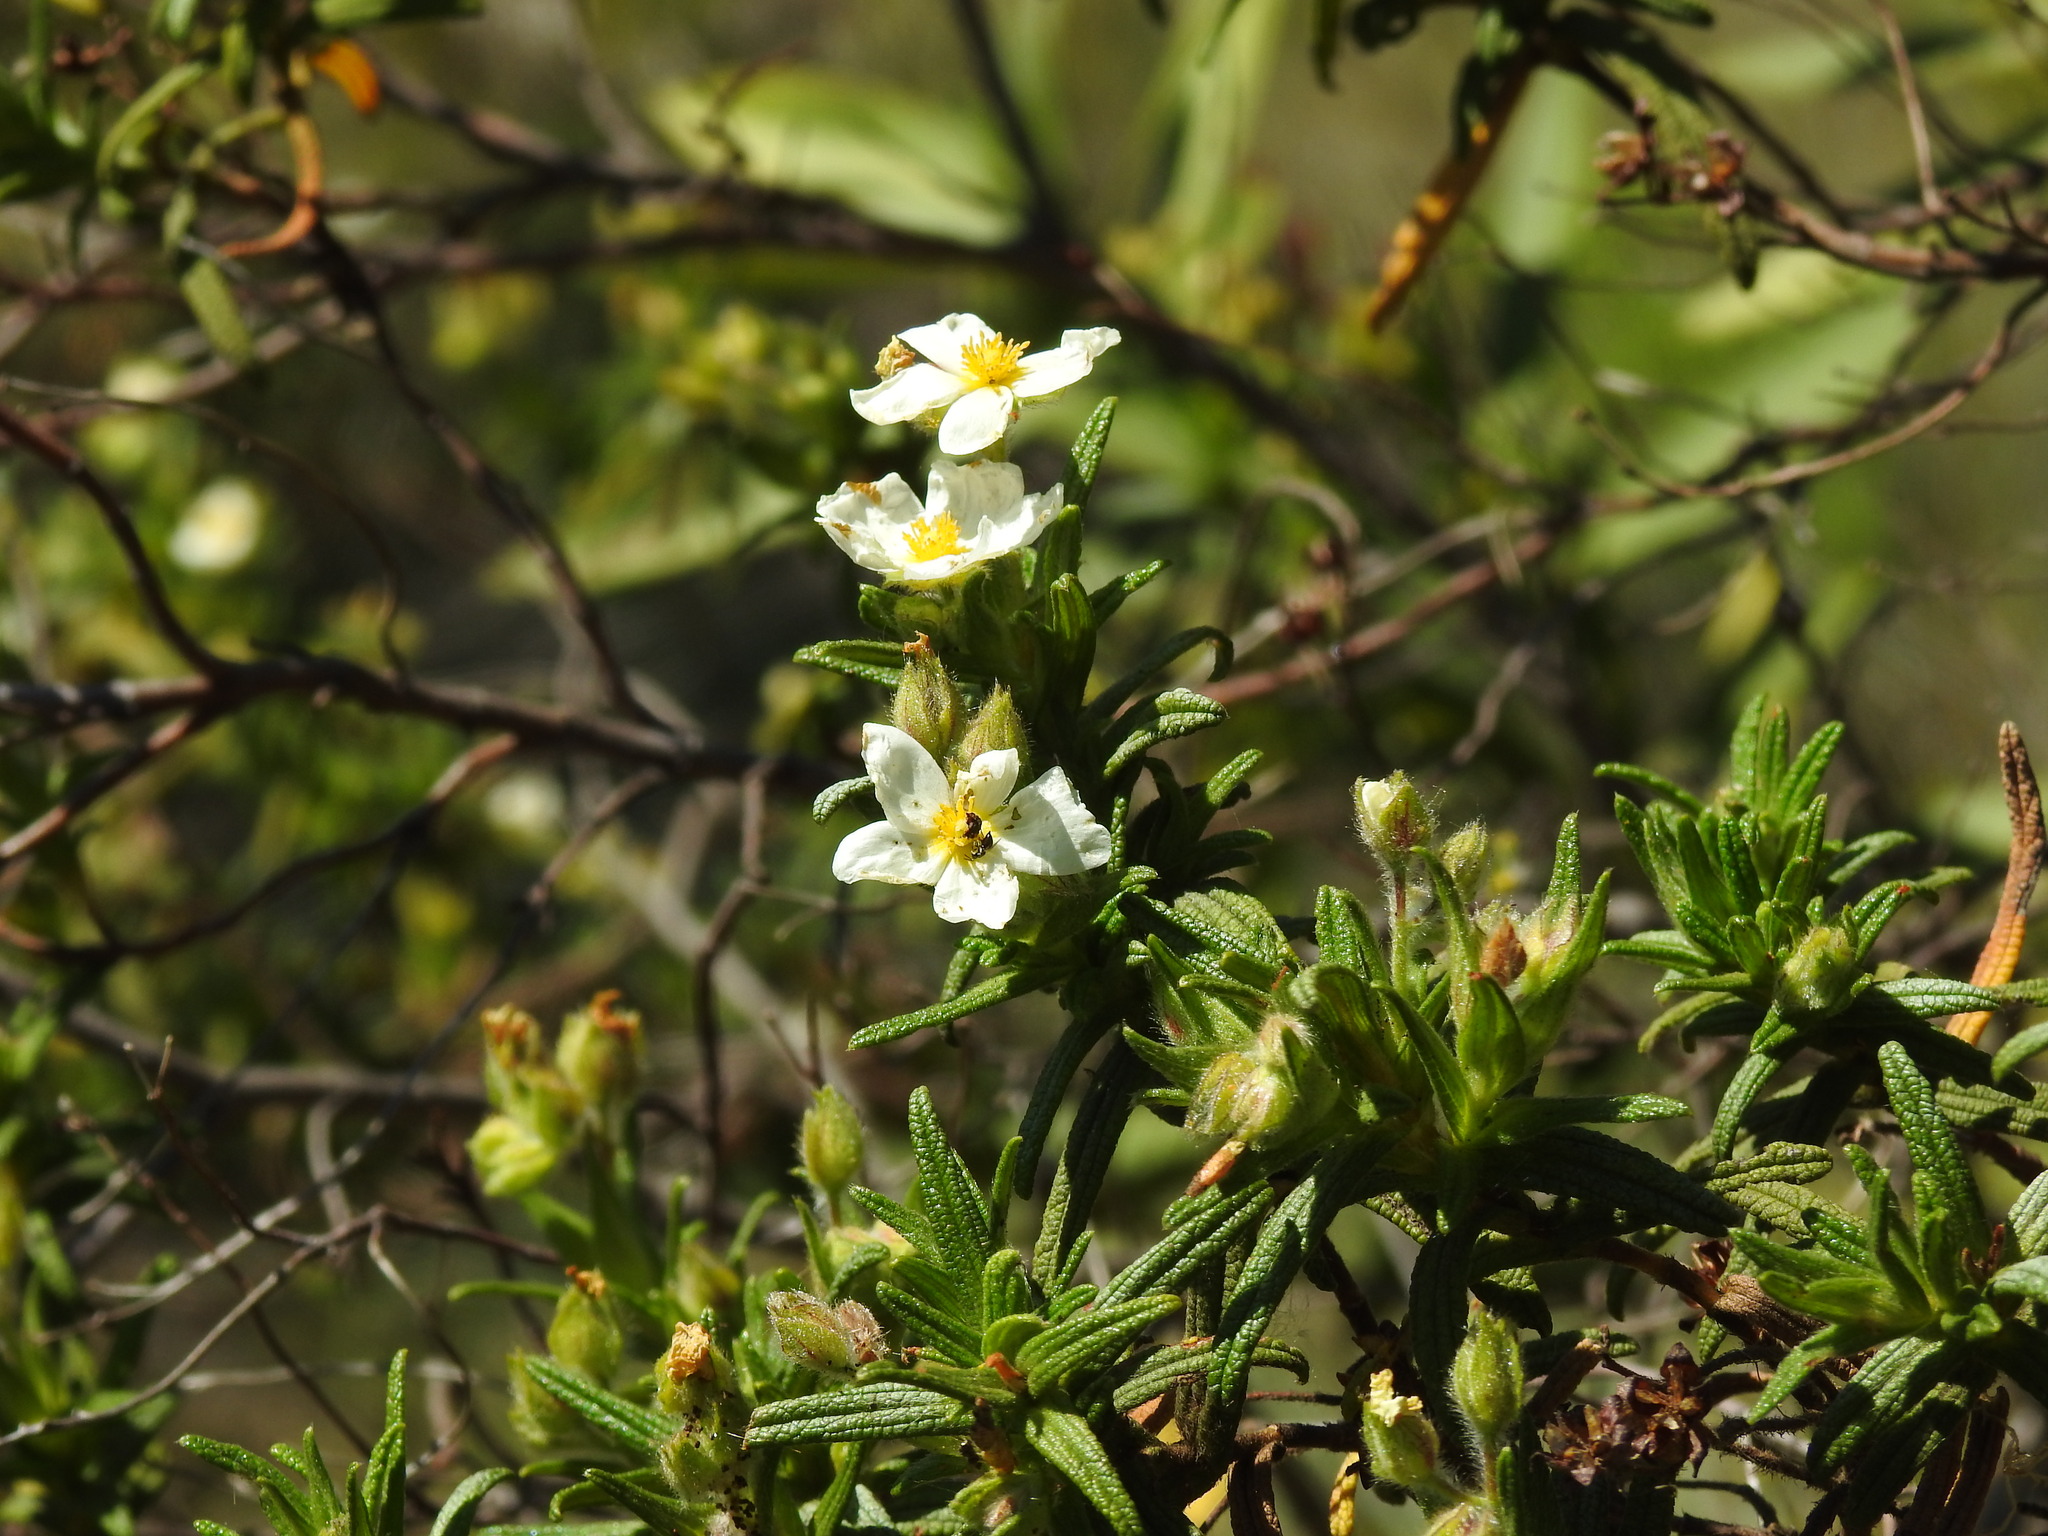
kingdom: Plantae
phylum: Tracheophyta
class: Magnoliopsida
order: Malvales
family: Cistaceae
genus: Cistus
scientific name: Cistus monspeliensis
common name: Montpelier cistus
